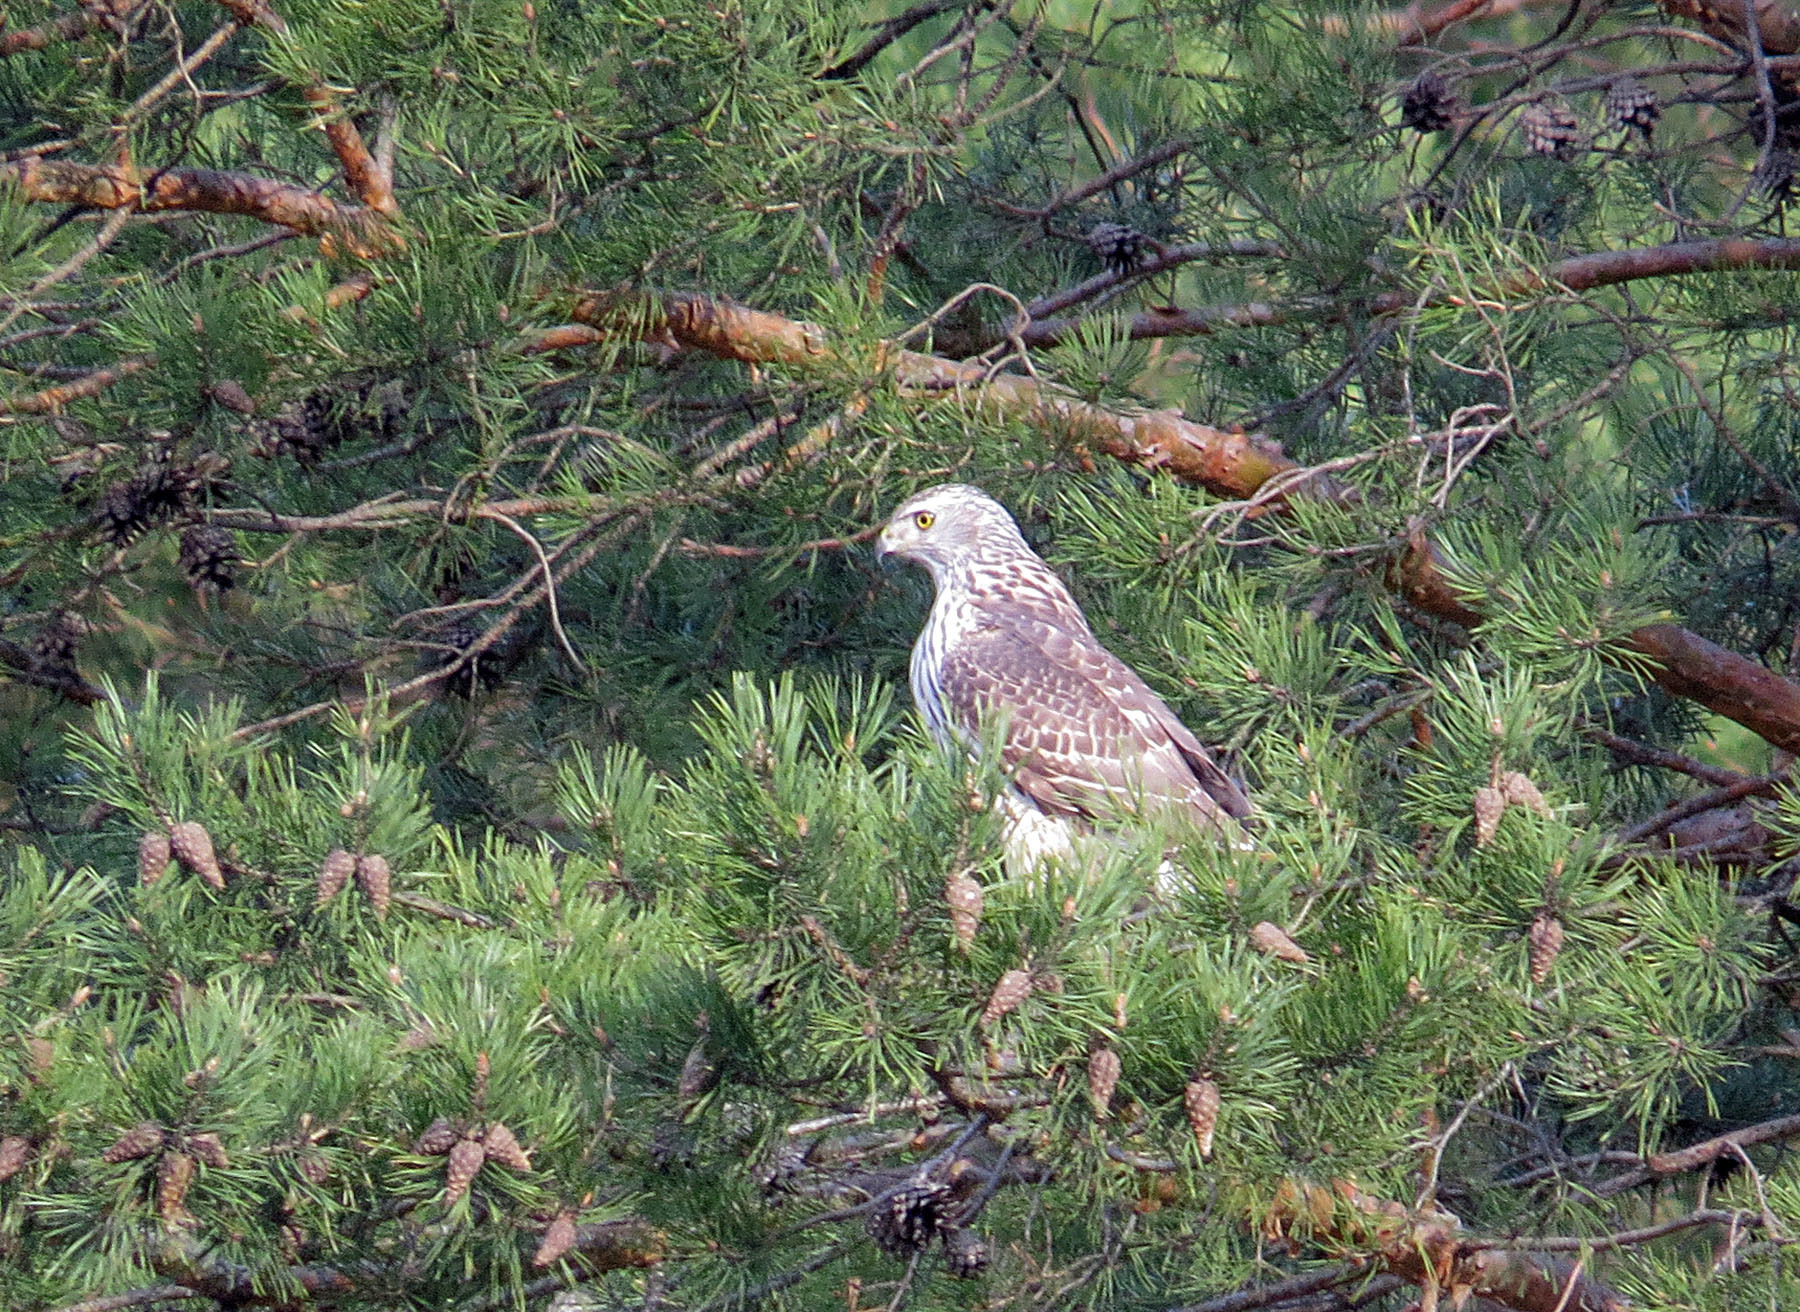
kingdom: Animalia
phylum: Chordata
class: Aves
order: Accipitriformes
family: Accipitridae
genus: Accipiter
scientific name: Accipiter gentilis
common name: Northern goshawk
